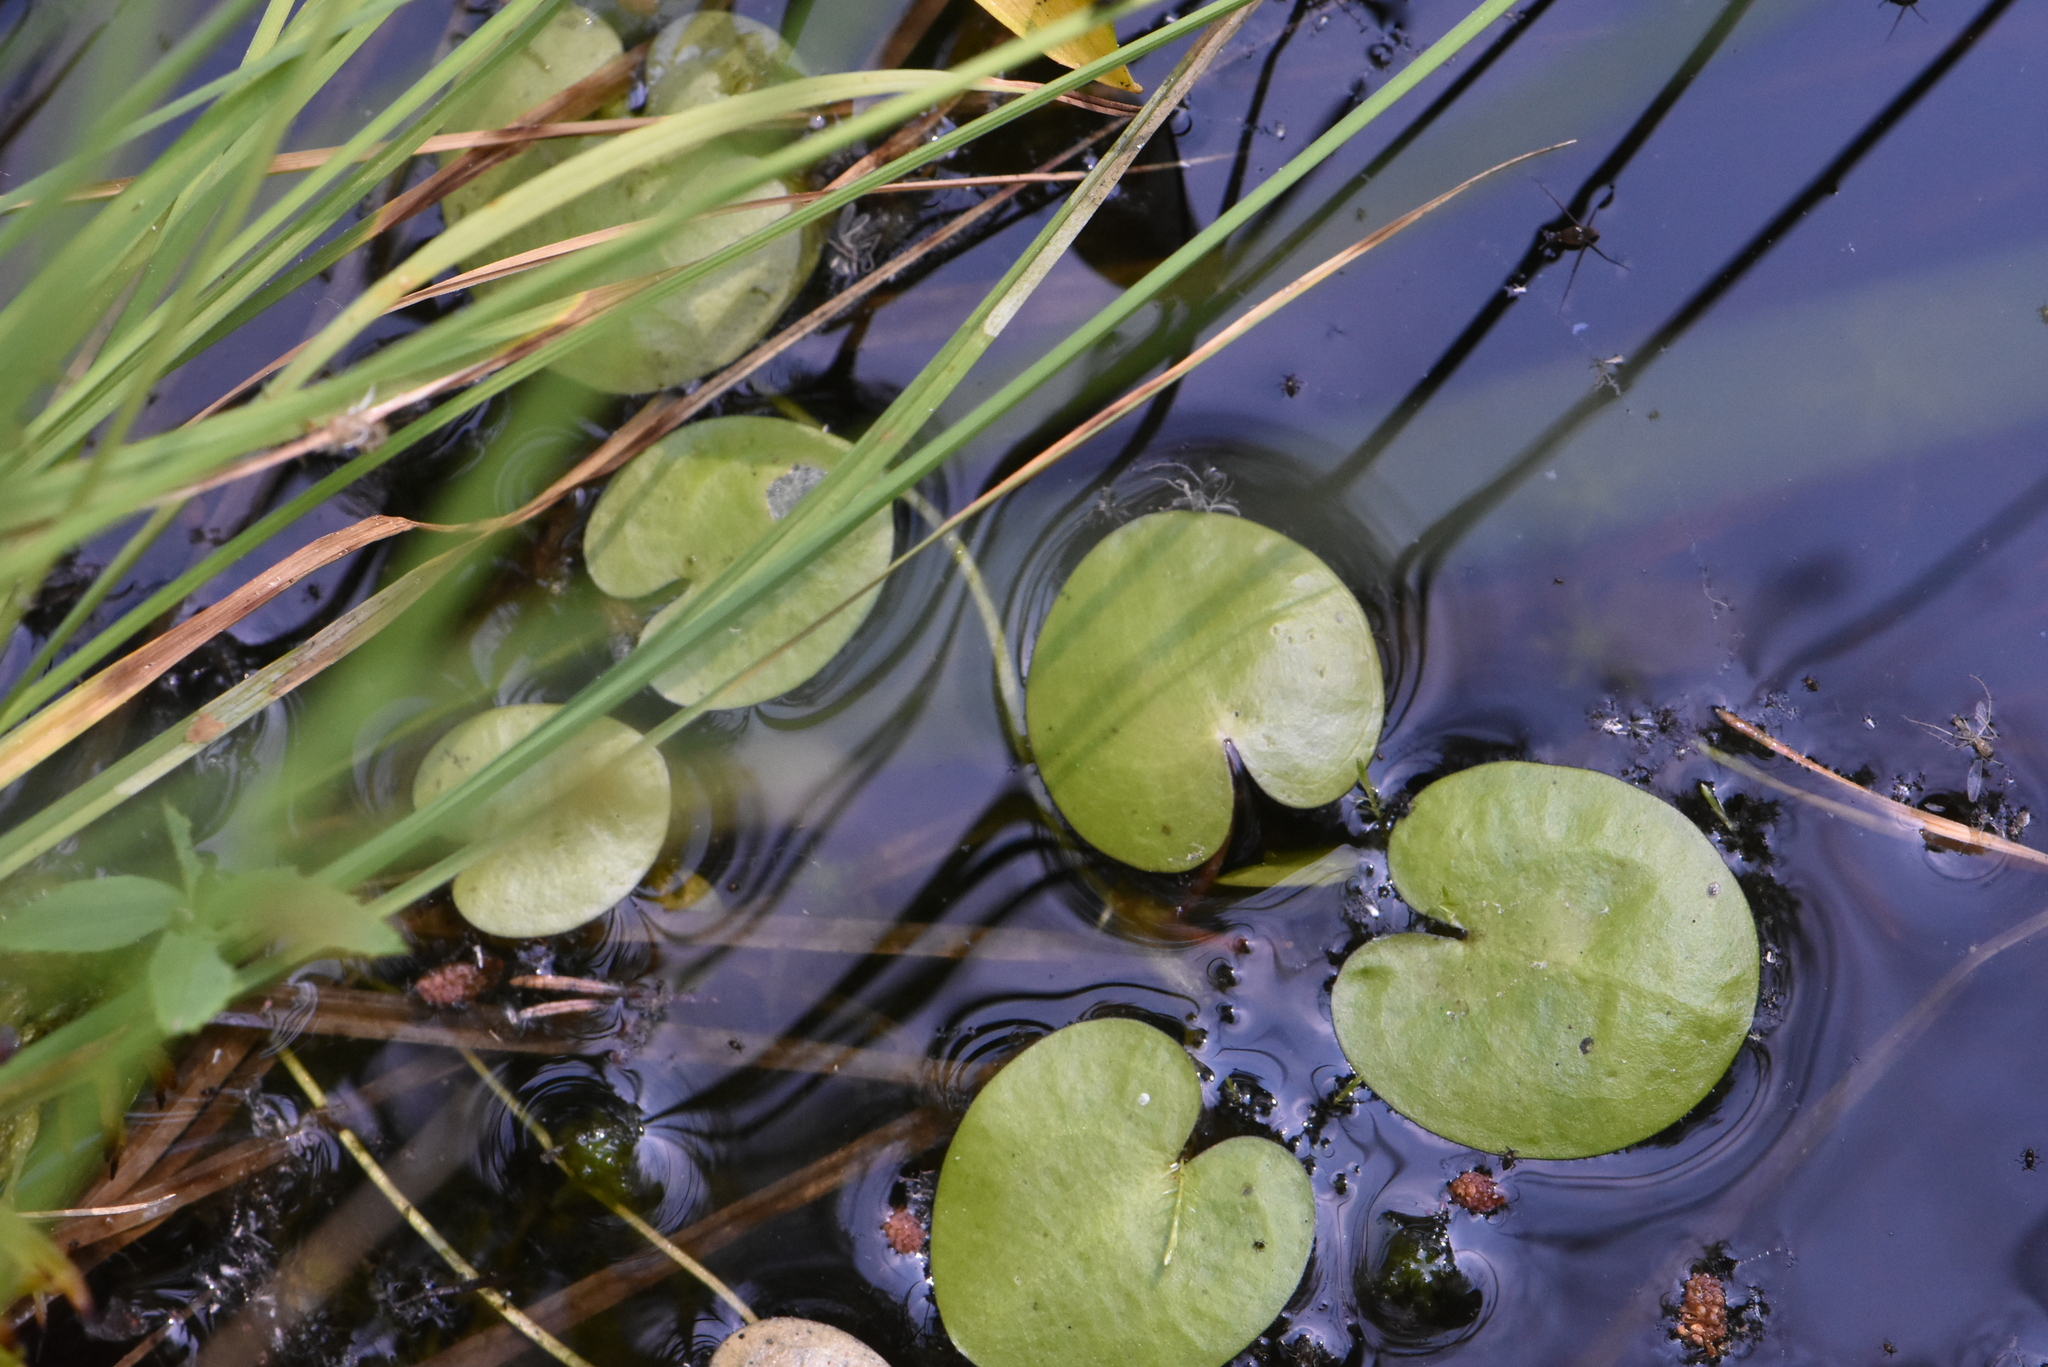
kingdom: Plantae
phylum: Tracheophyta
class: Liliopsida
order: Alismatales
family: Hydrocharitaceae
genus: Hydrocharis
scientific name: Hydrocharis morsus-ranae
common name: Frogbit
